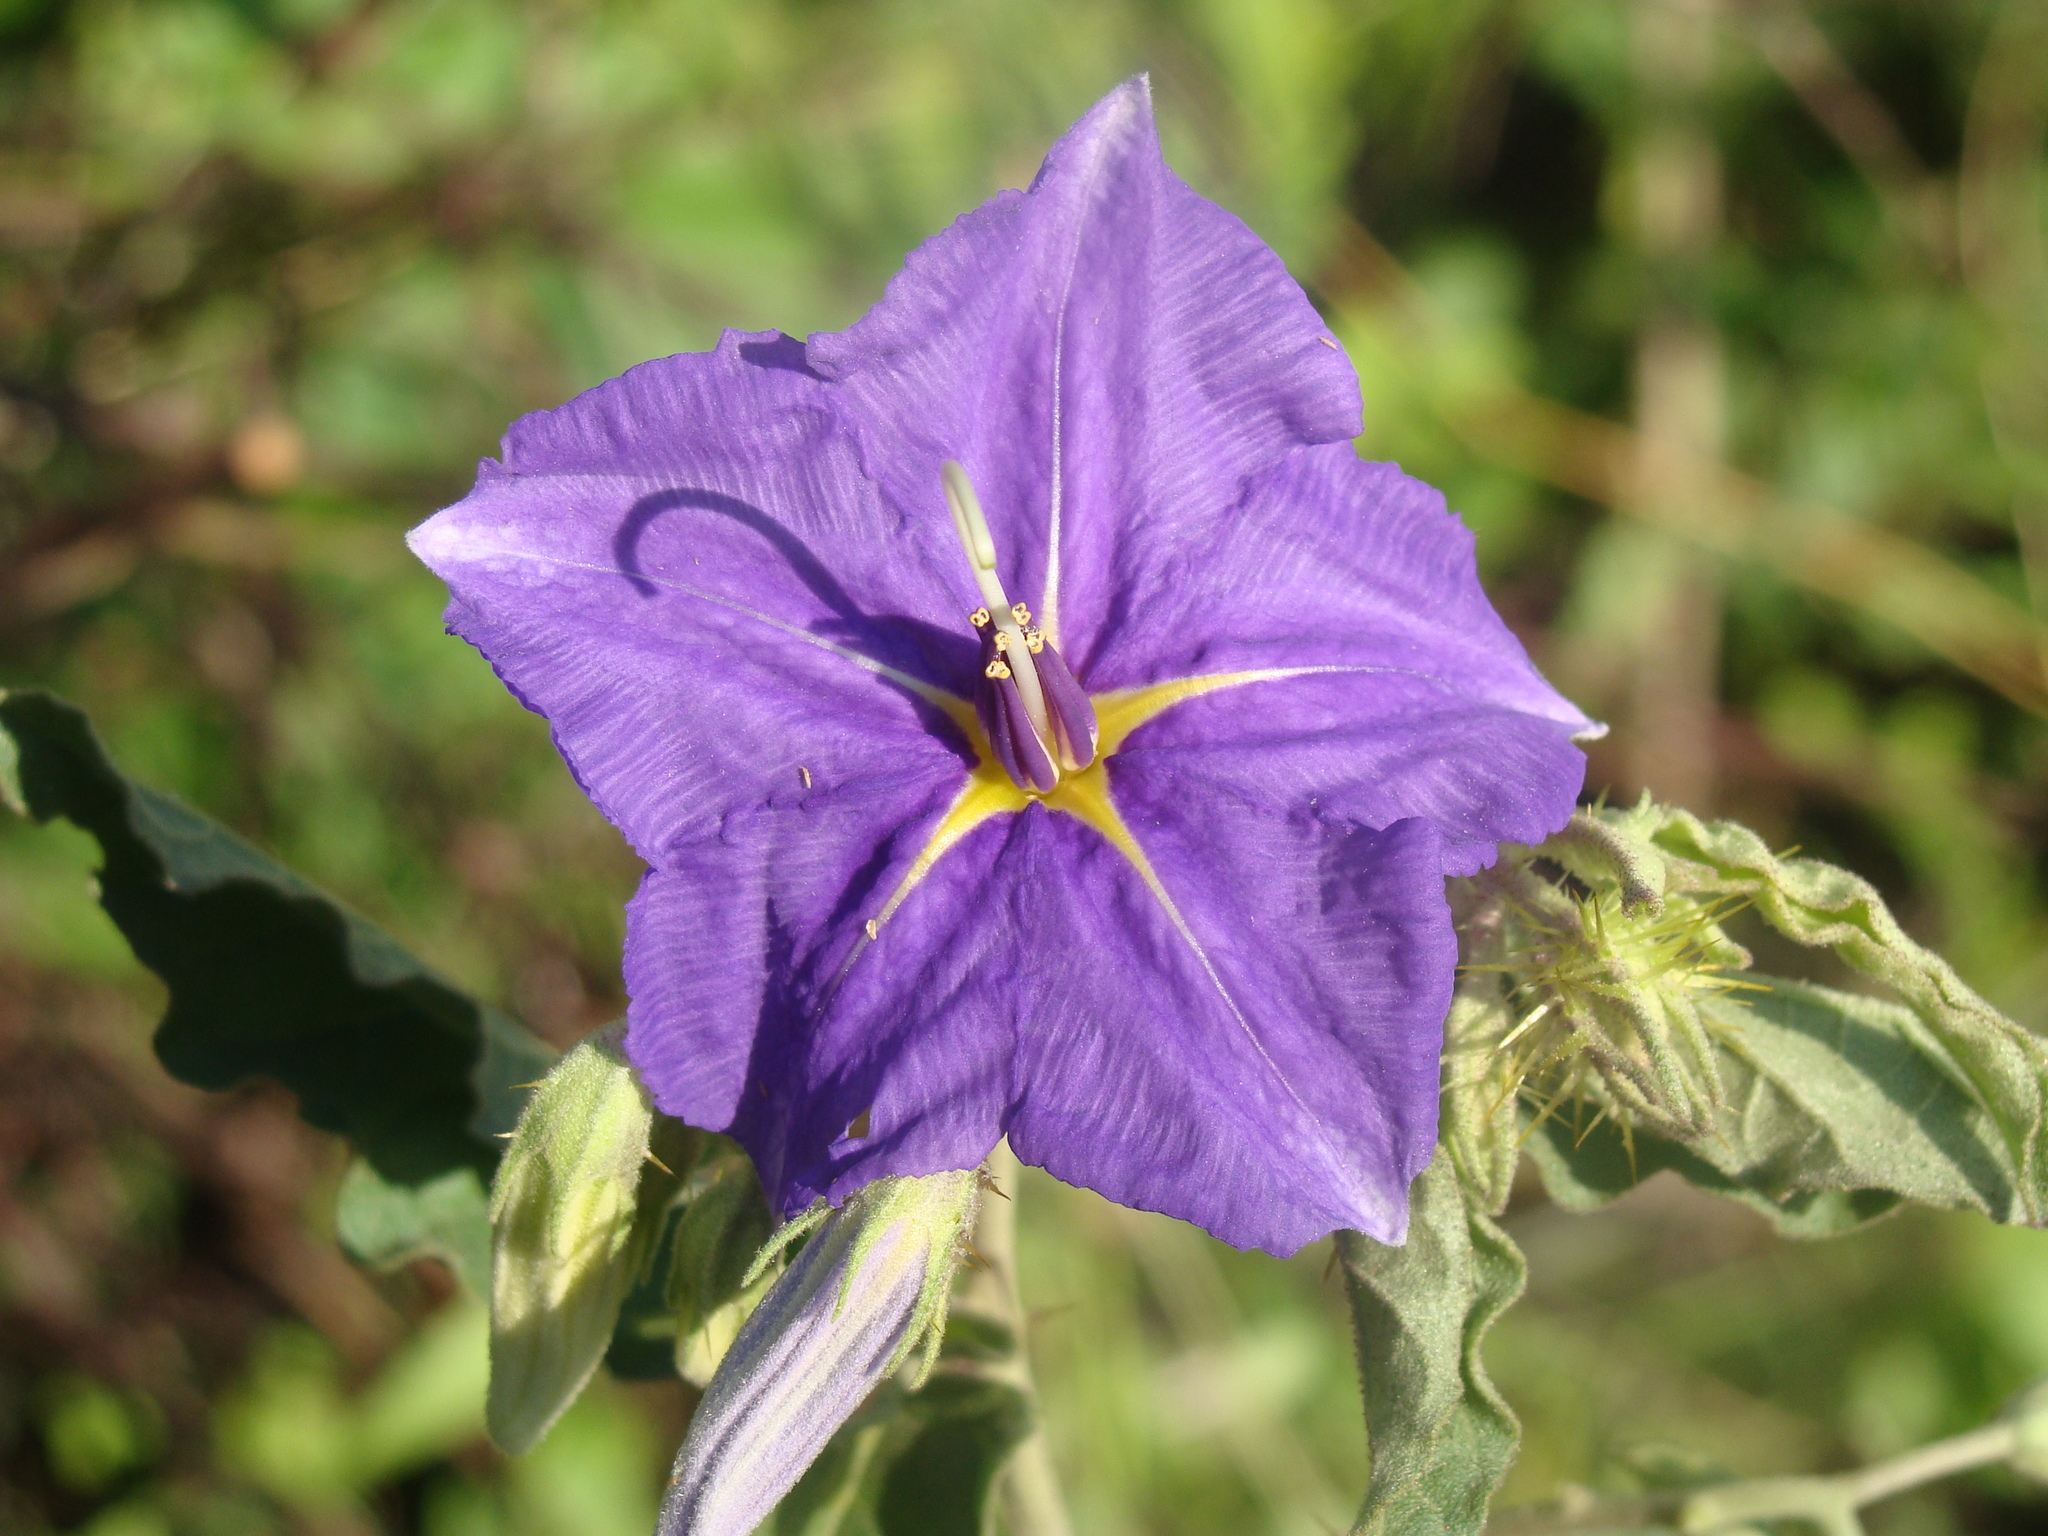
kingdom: Plantae
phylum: Tracheophyta
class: Magnoliopsida
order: Solanales
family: Solanaceae
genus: Solanum
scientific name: Solanum houstonii
